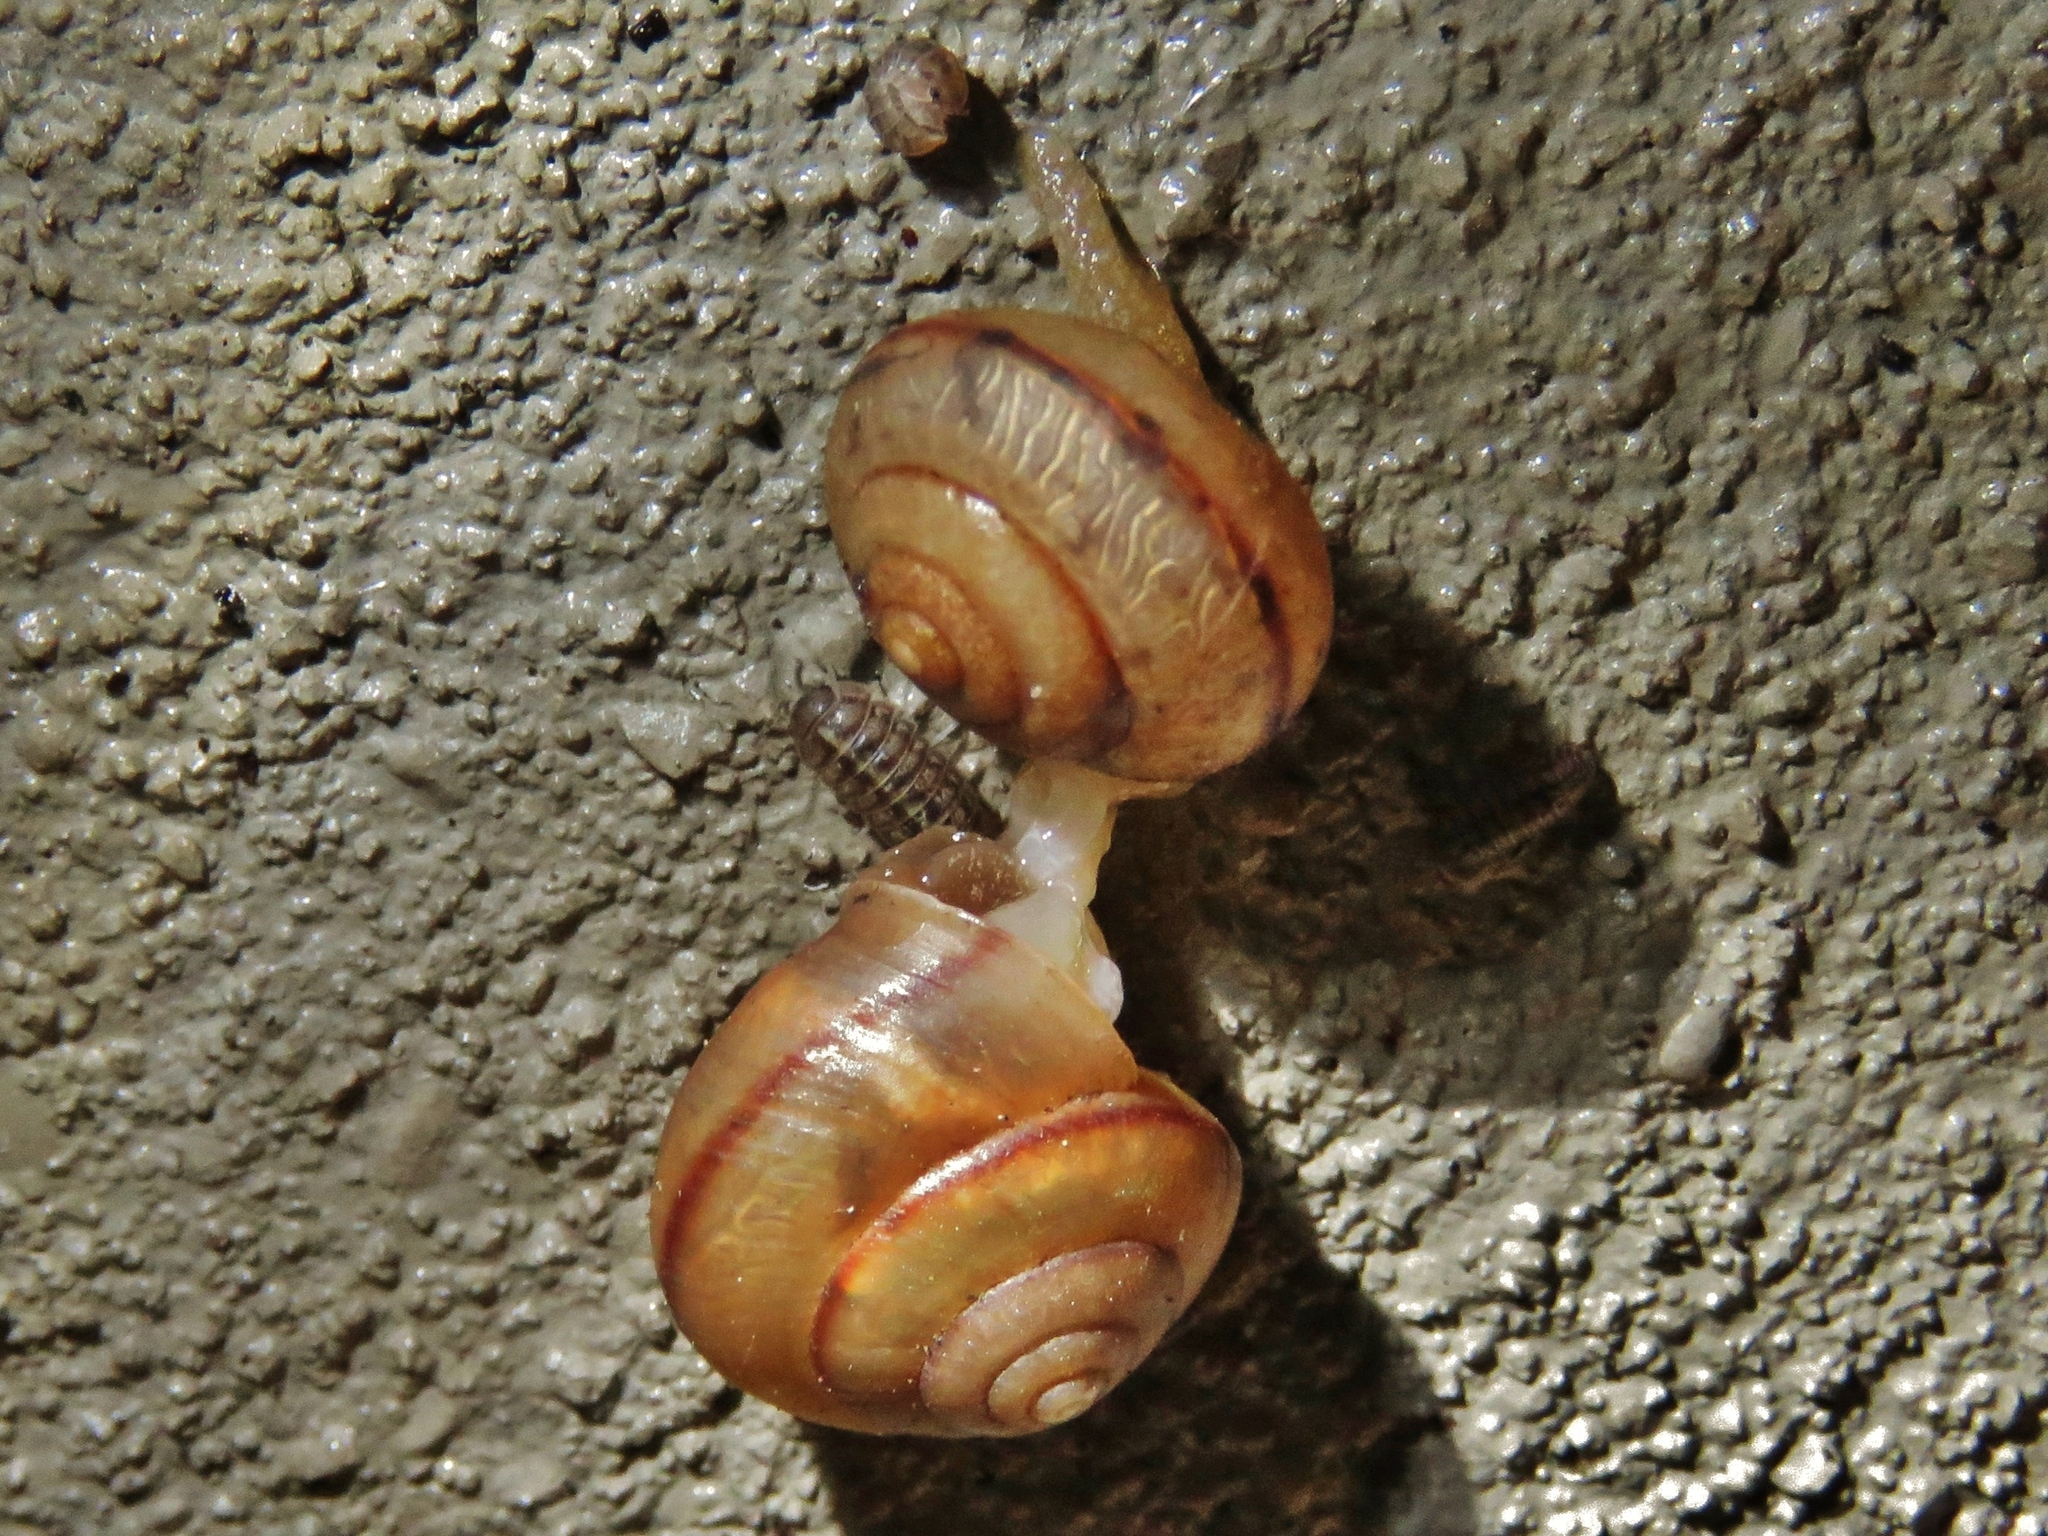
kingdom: Animalia
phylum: Mollusca
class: Gastropoda
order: Stylommatophora
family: Camaenidae
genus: Bradybaena
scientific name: Bradybaena similaris
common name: Asian trampsnail
